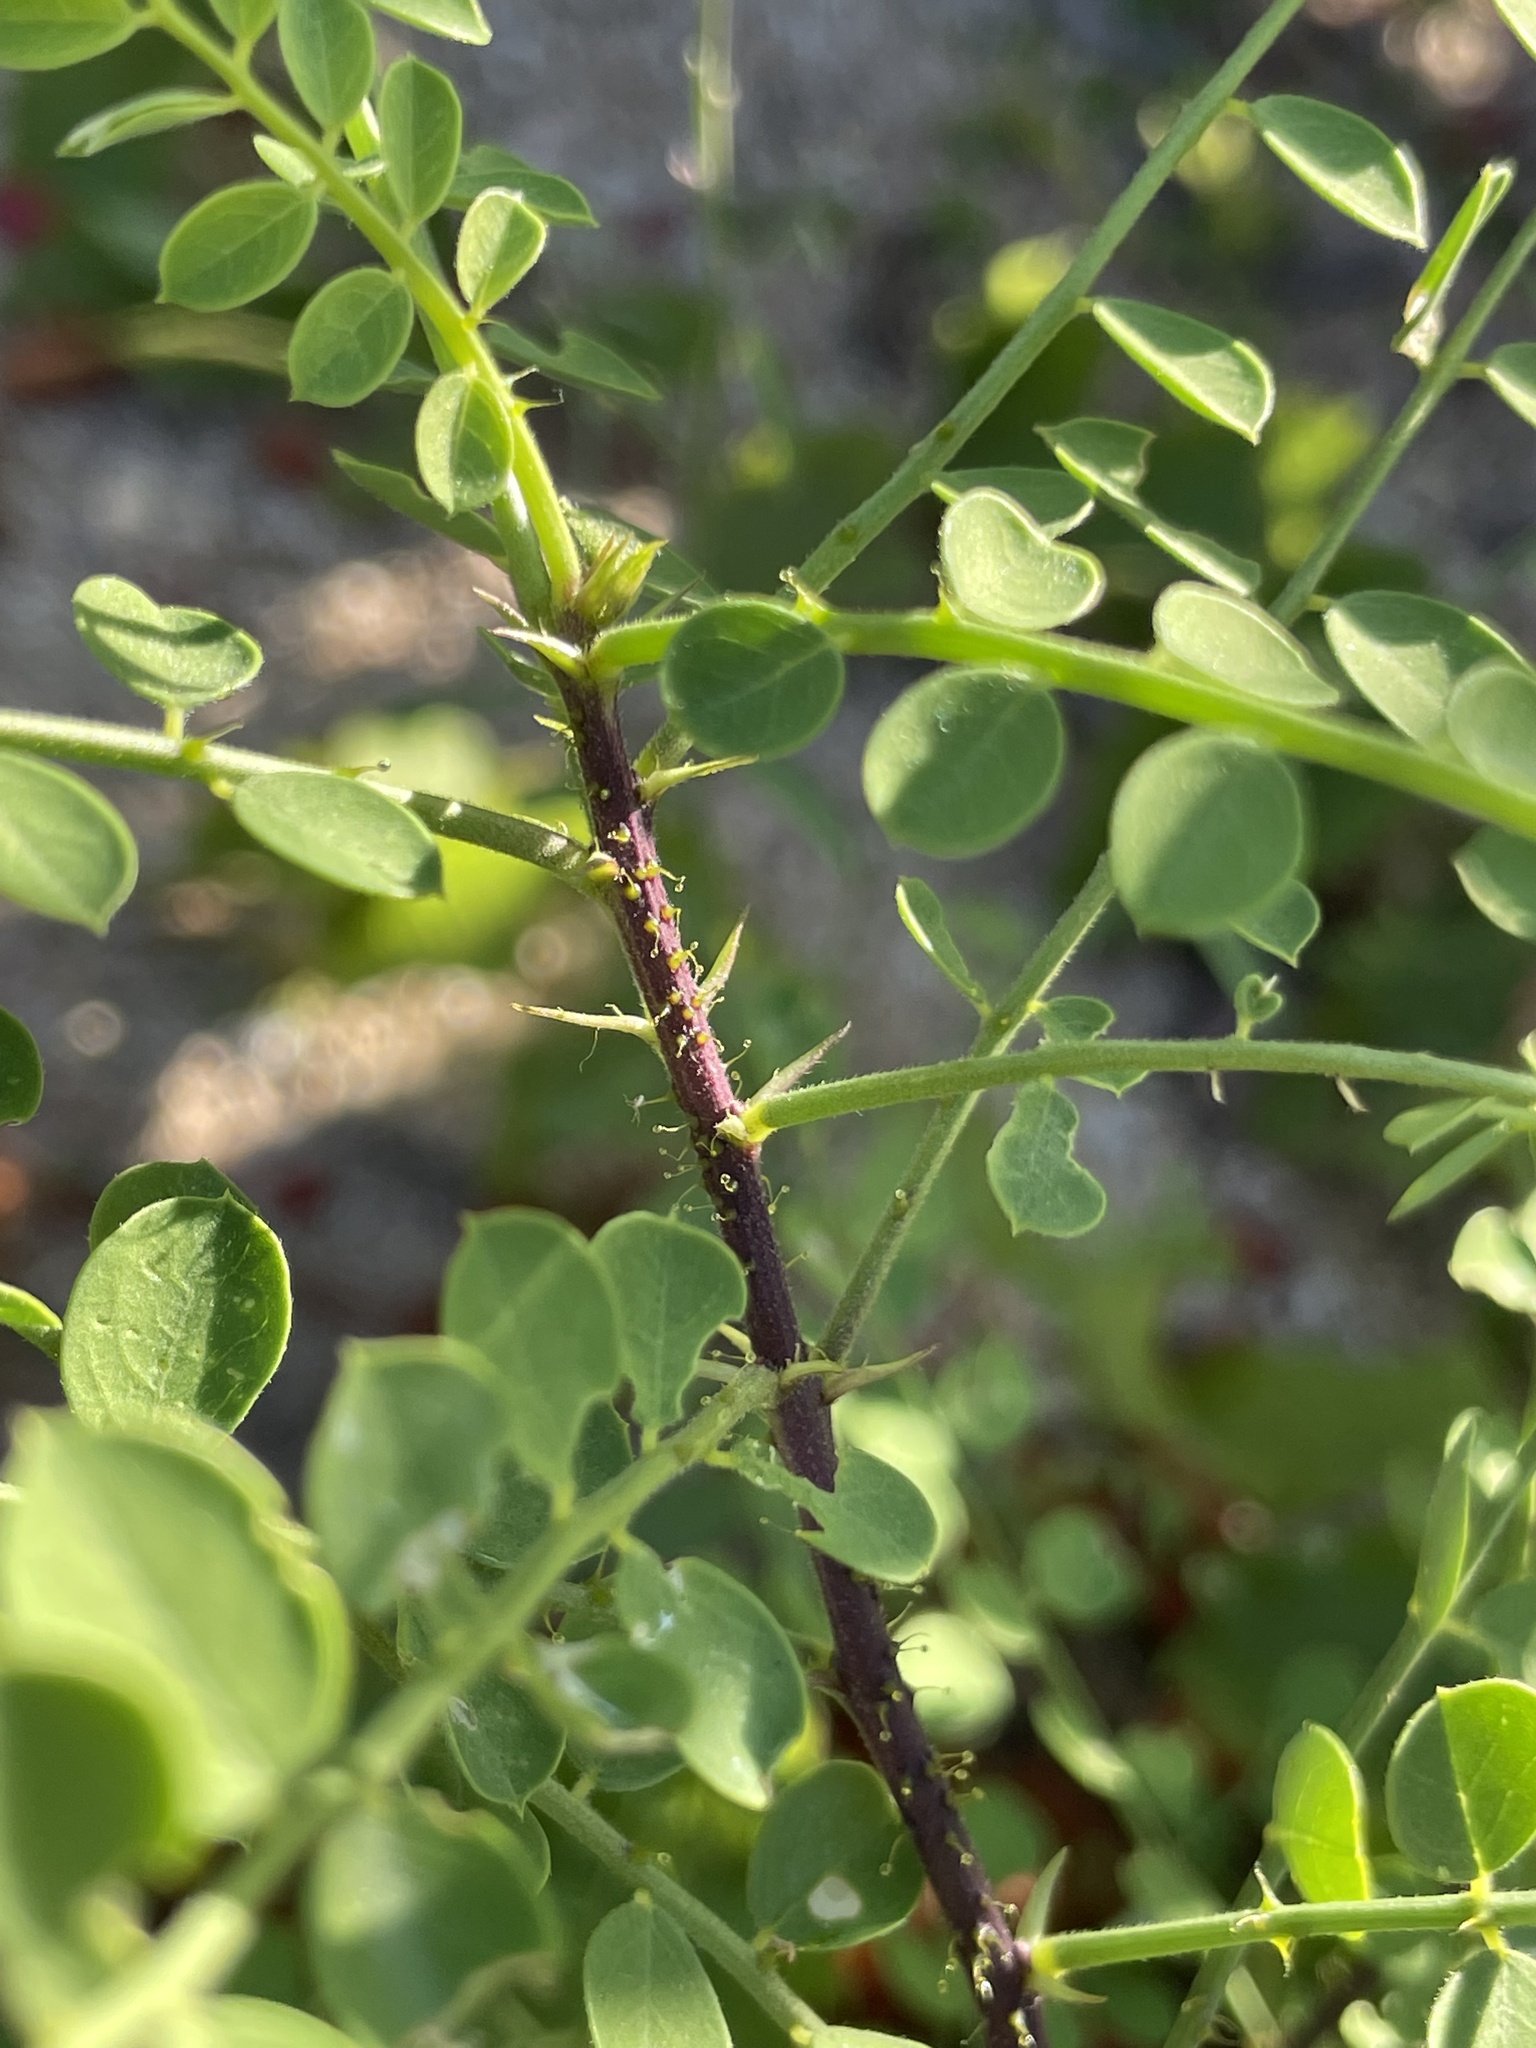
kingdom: Plantae
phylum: Tracheophyta
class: Magnoliopsida
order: Fabales
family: Fabaceae
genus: Diphysa
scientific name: Diphysa occidentalis
